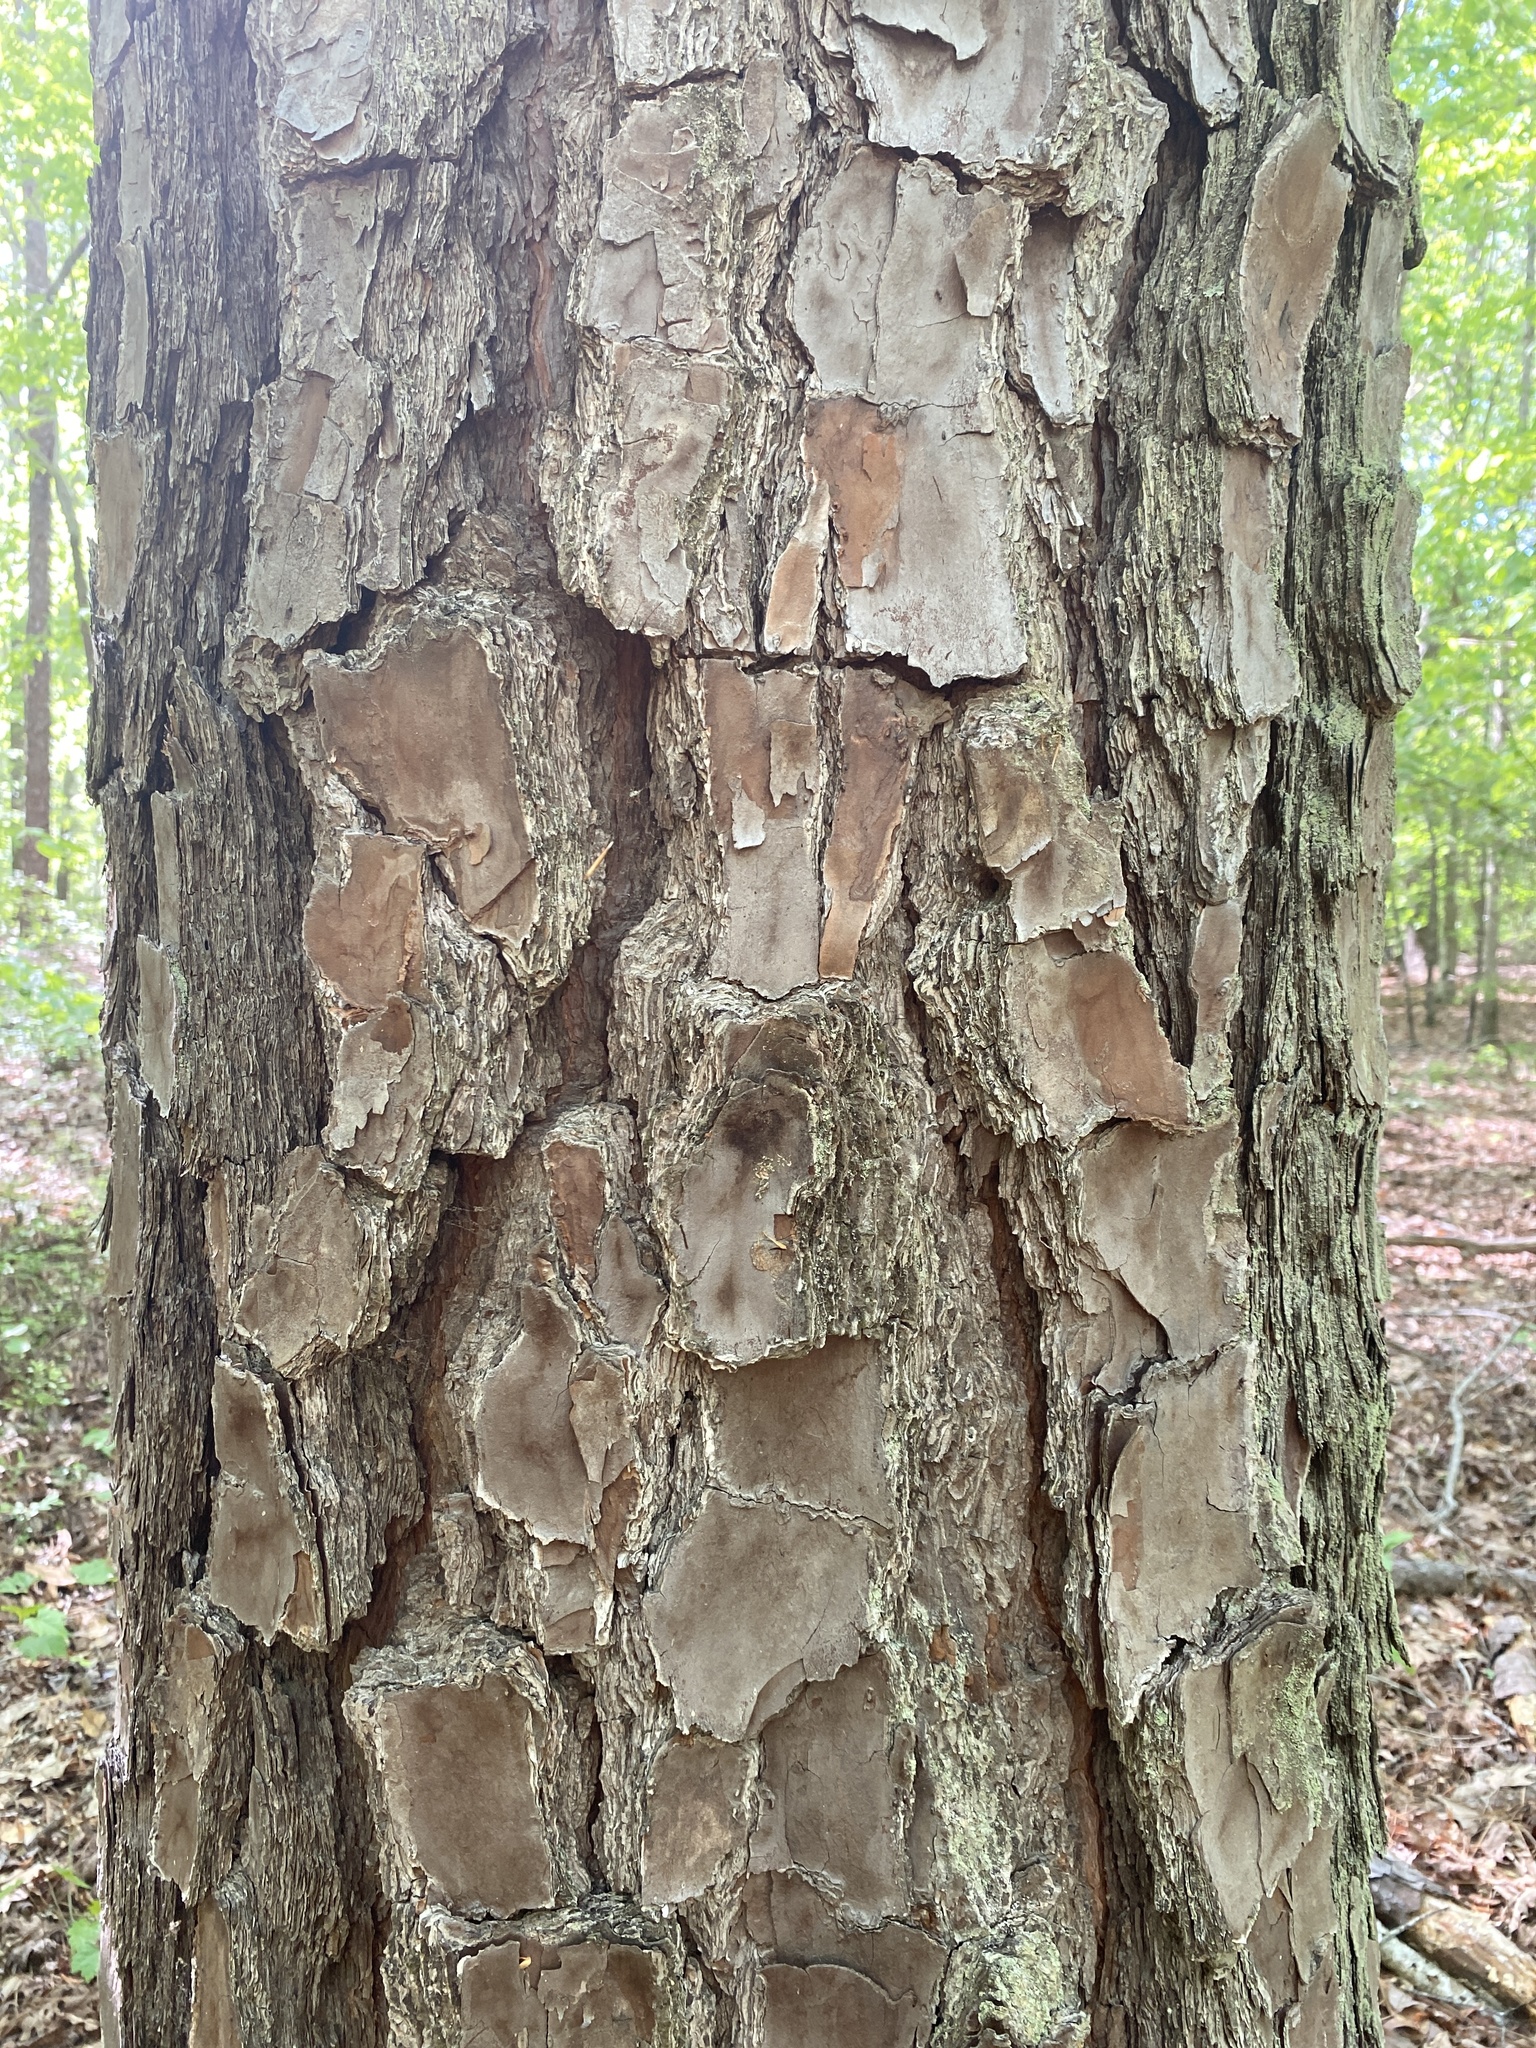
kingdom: Plantae
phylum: Tracheophyta
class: Pinopsida
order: Pinales
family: Pinaceae
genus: Pinus
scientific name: Pinus taeda
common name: Loblolly pine
